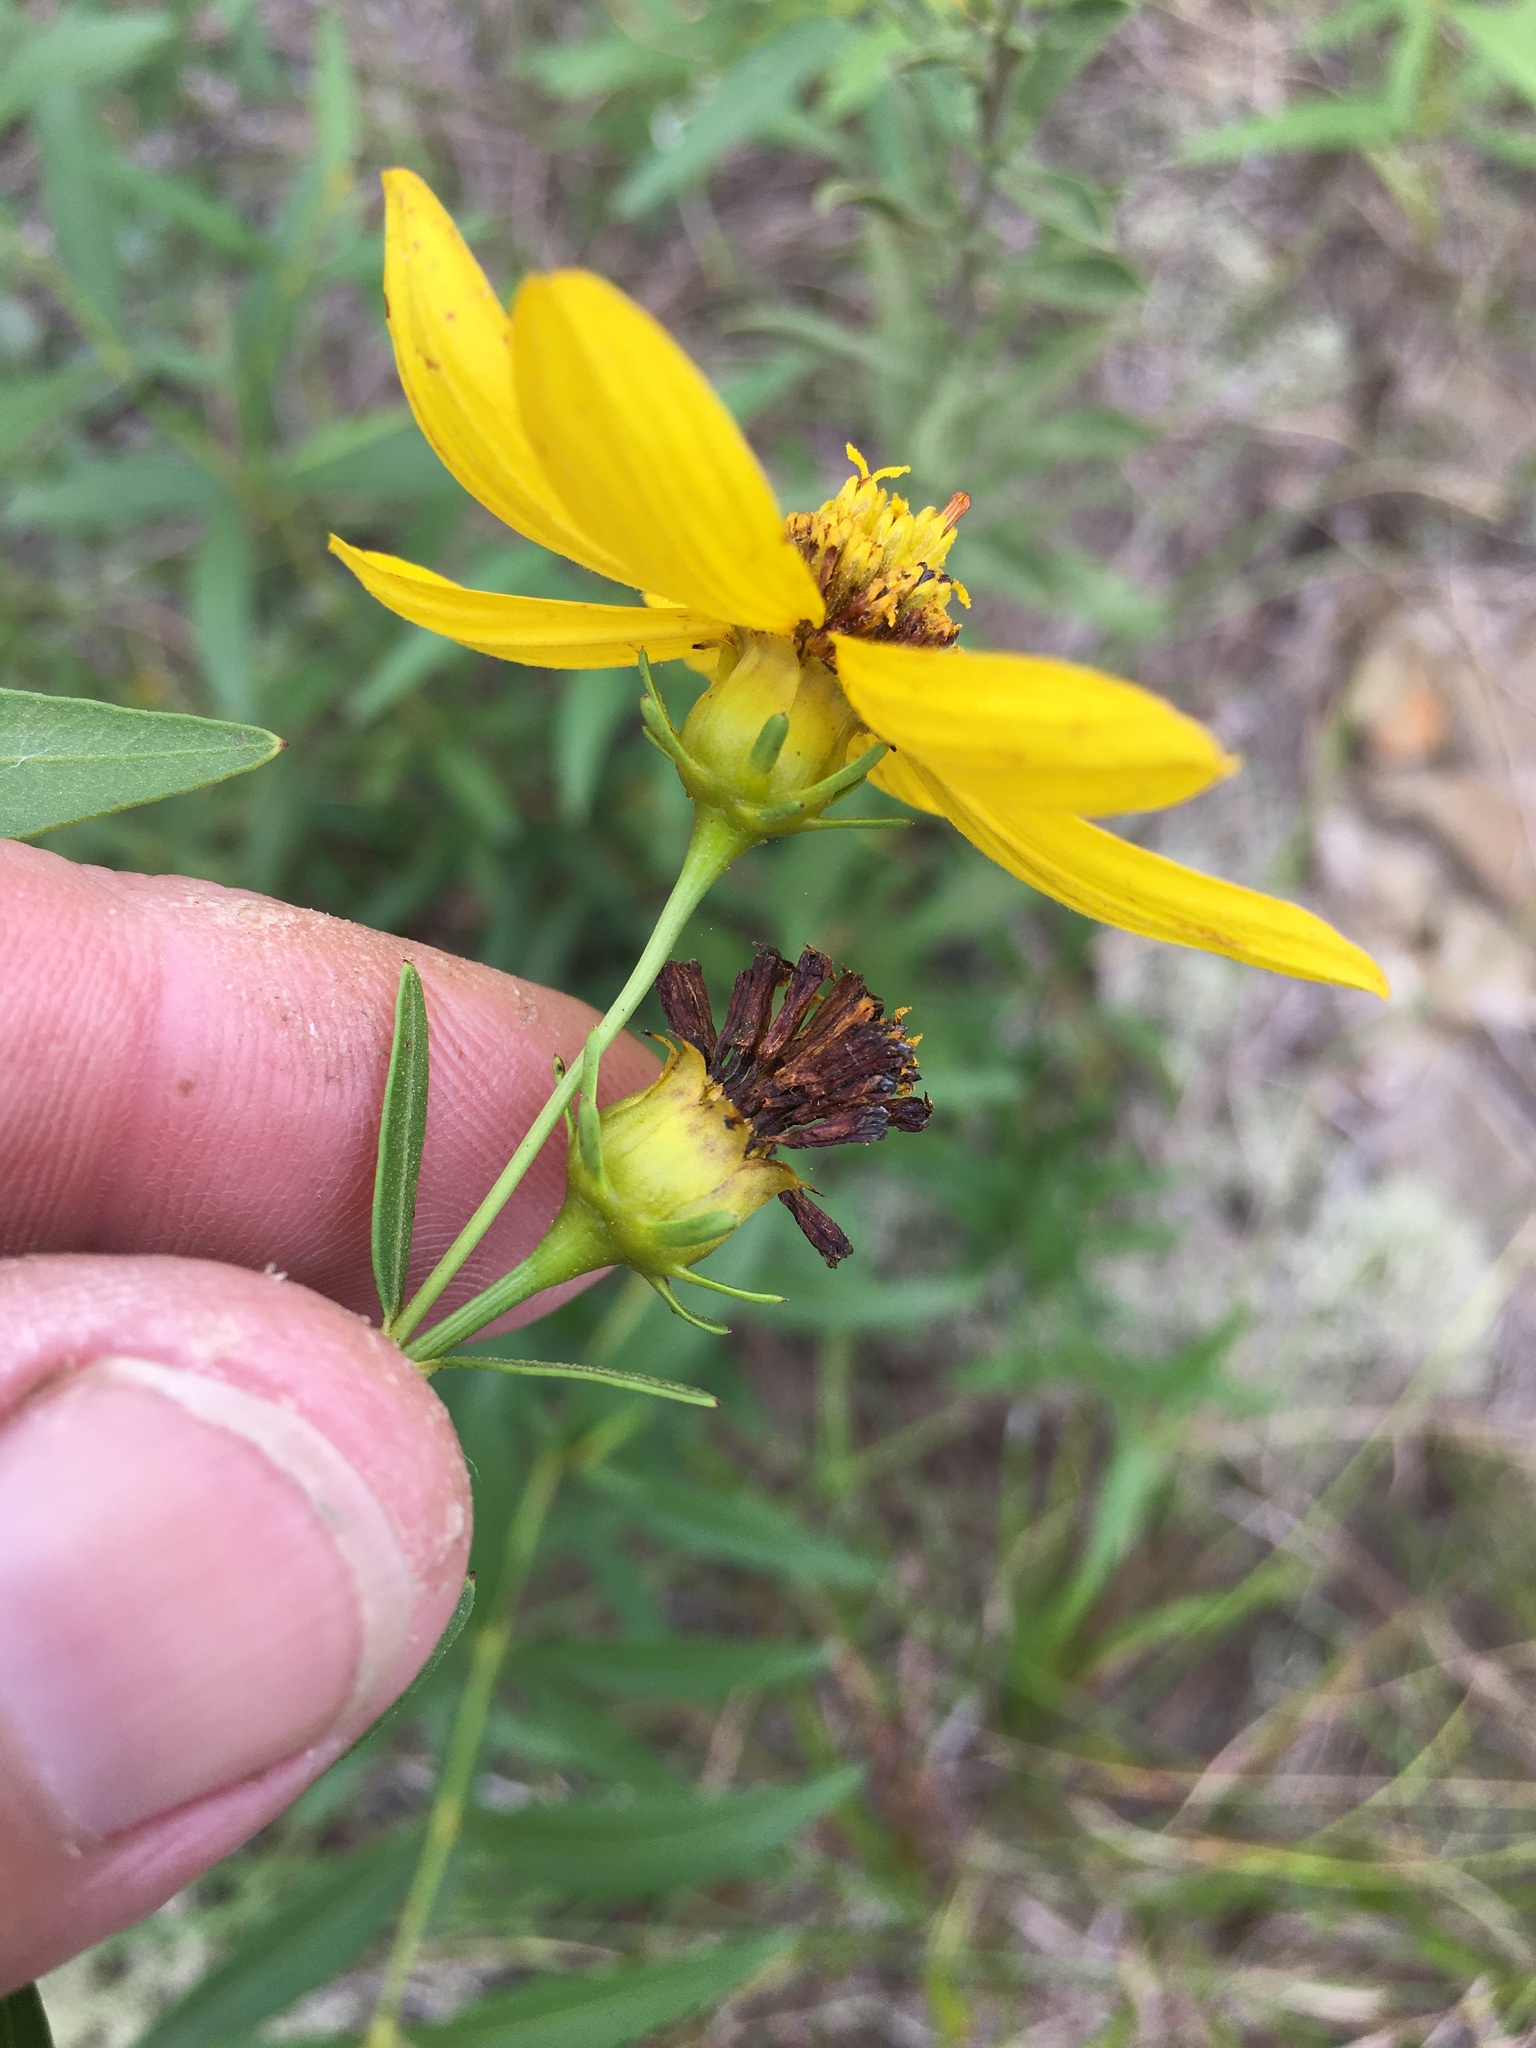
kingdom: Plantae
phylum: Tracheophyta
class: Magnoliopsida
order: Asterales
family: Asteraceae
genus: Coreopsis
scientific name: Coreopsis major
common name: Forest tickseed
